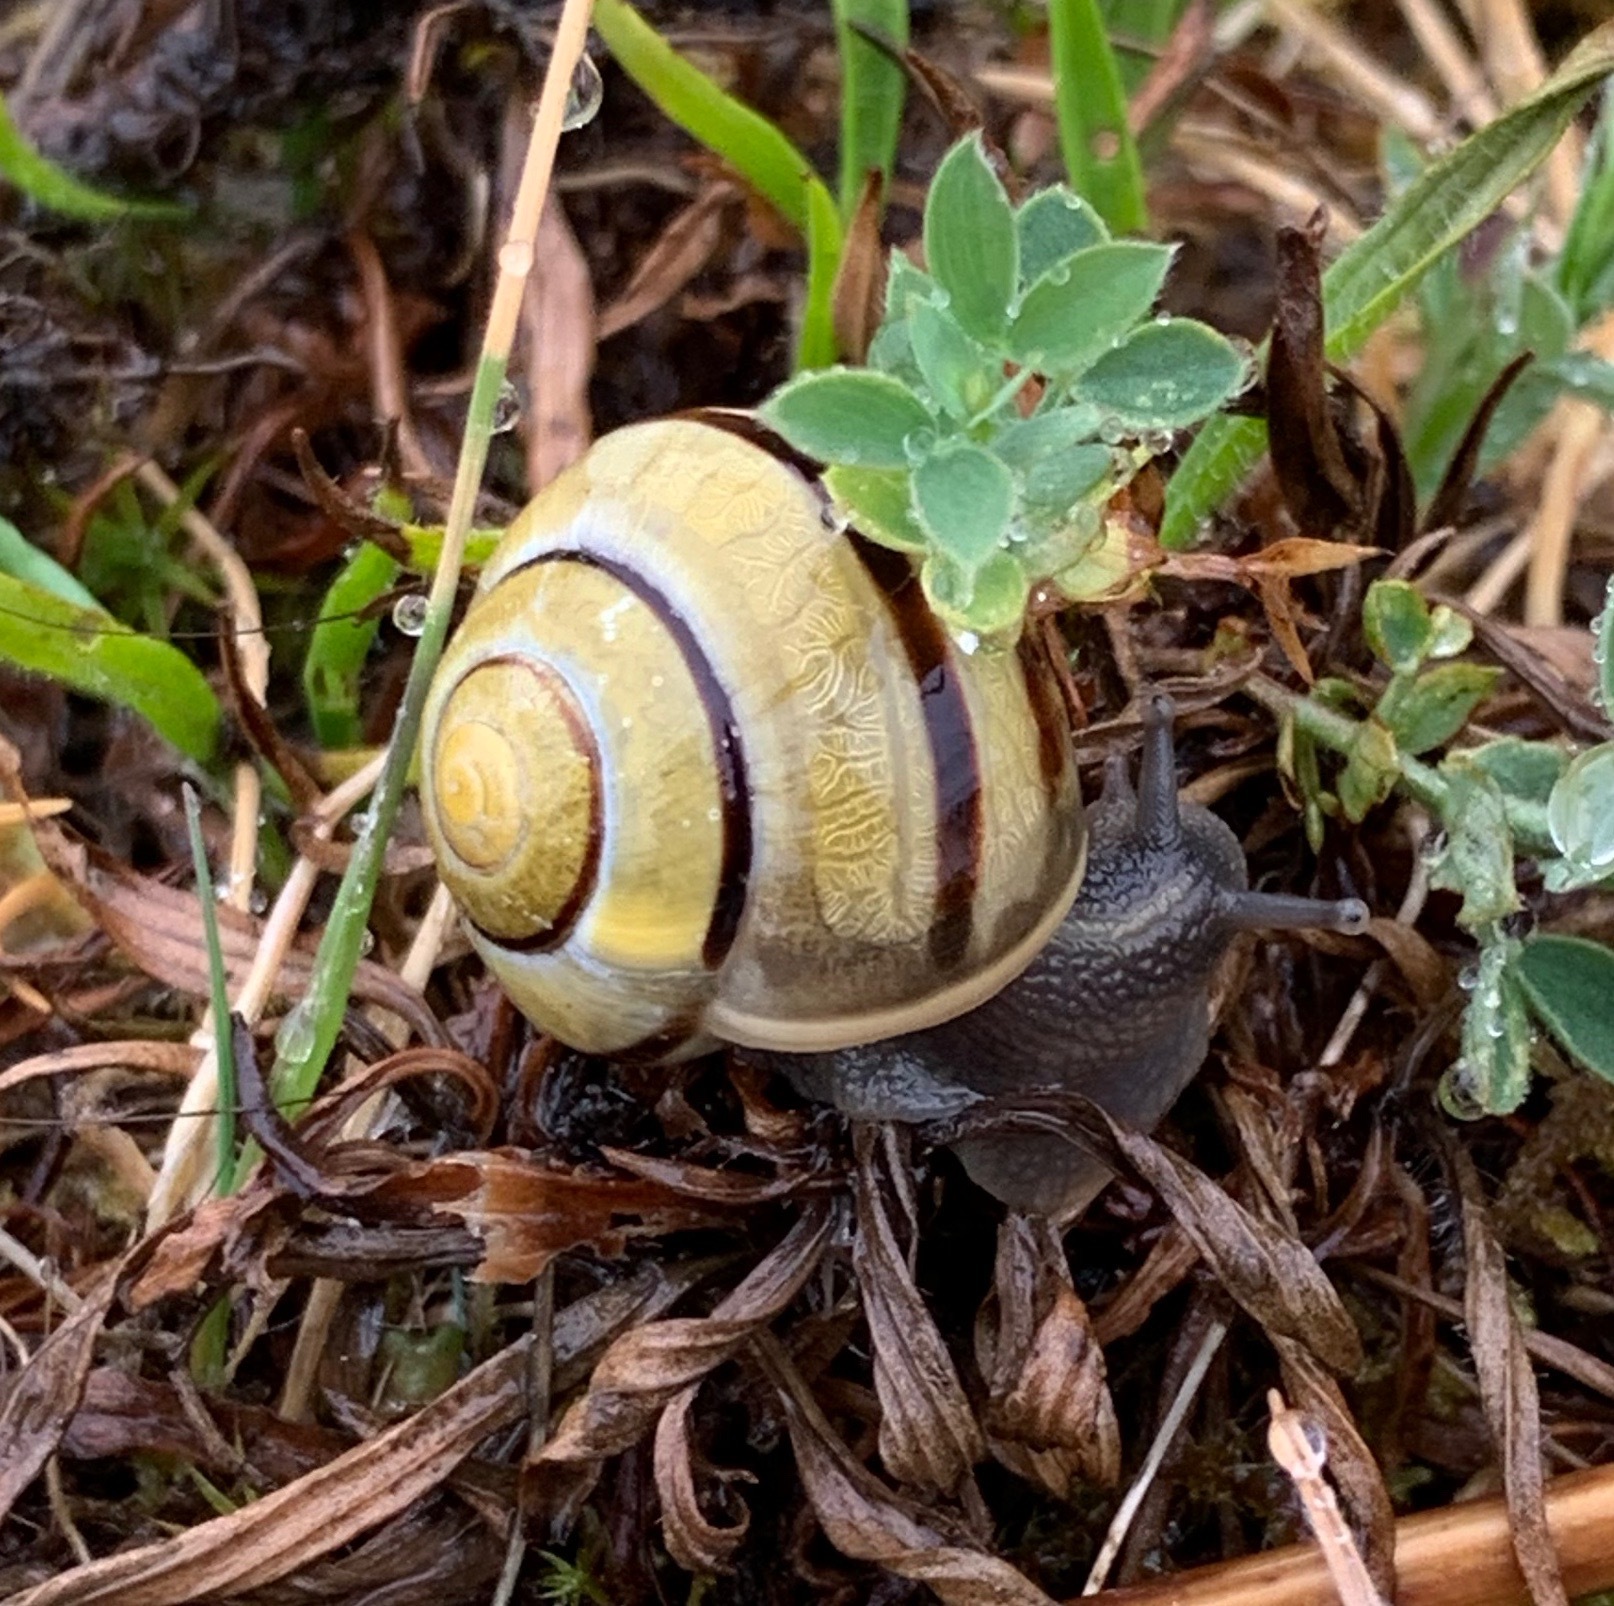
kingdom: Animalia
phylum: Mollusca
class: Gastropoda
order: Stylommatophora
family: Helicidae
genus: Cepaea
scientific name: Cepaea
